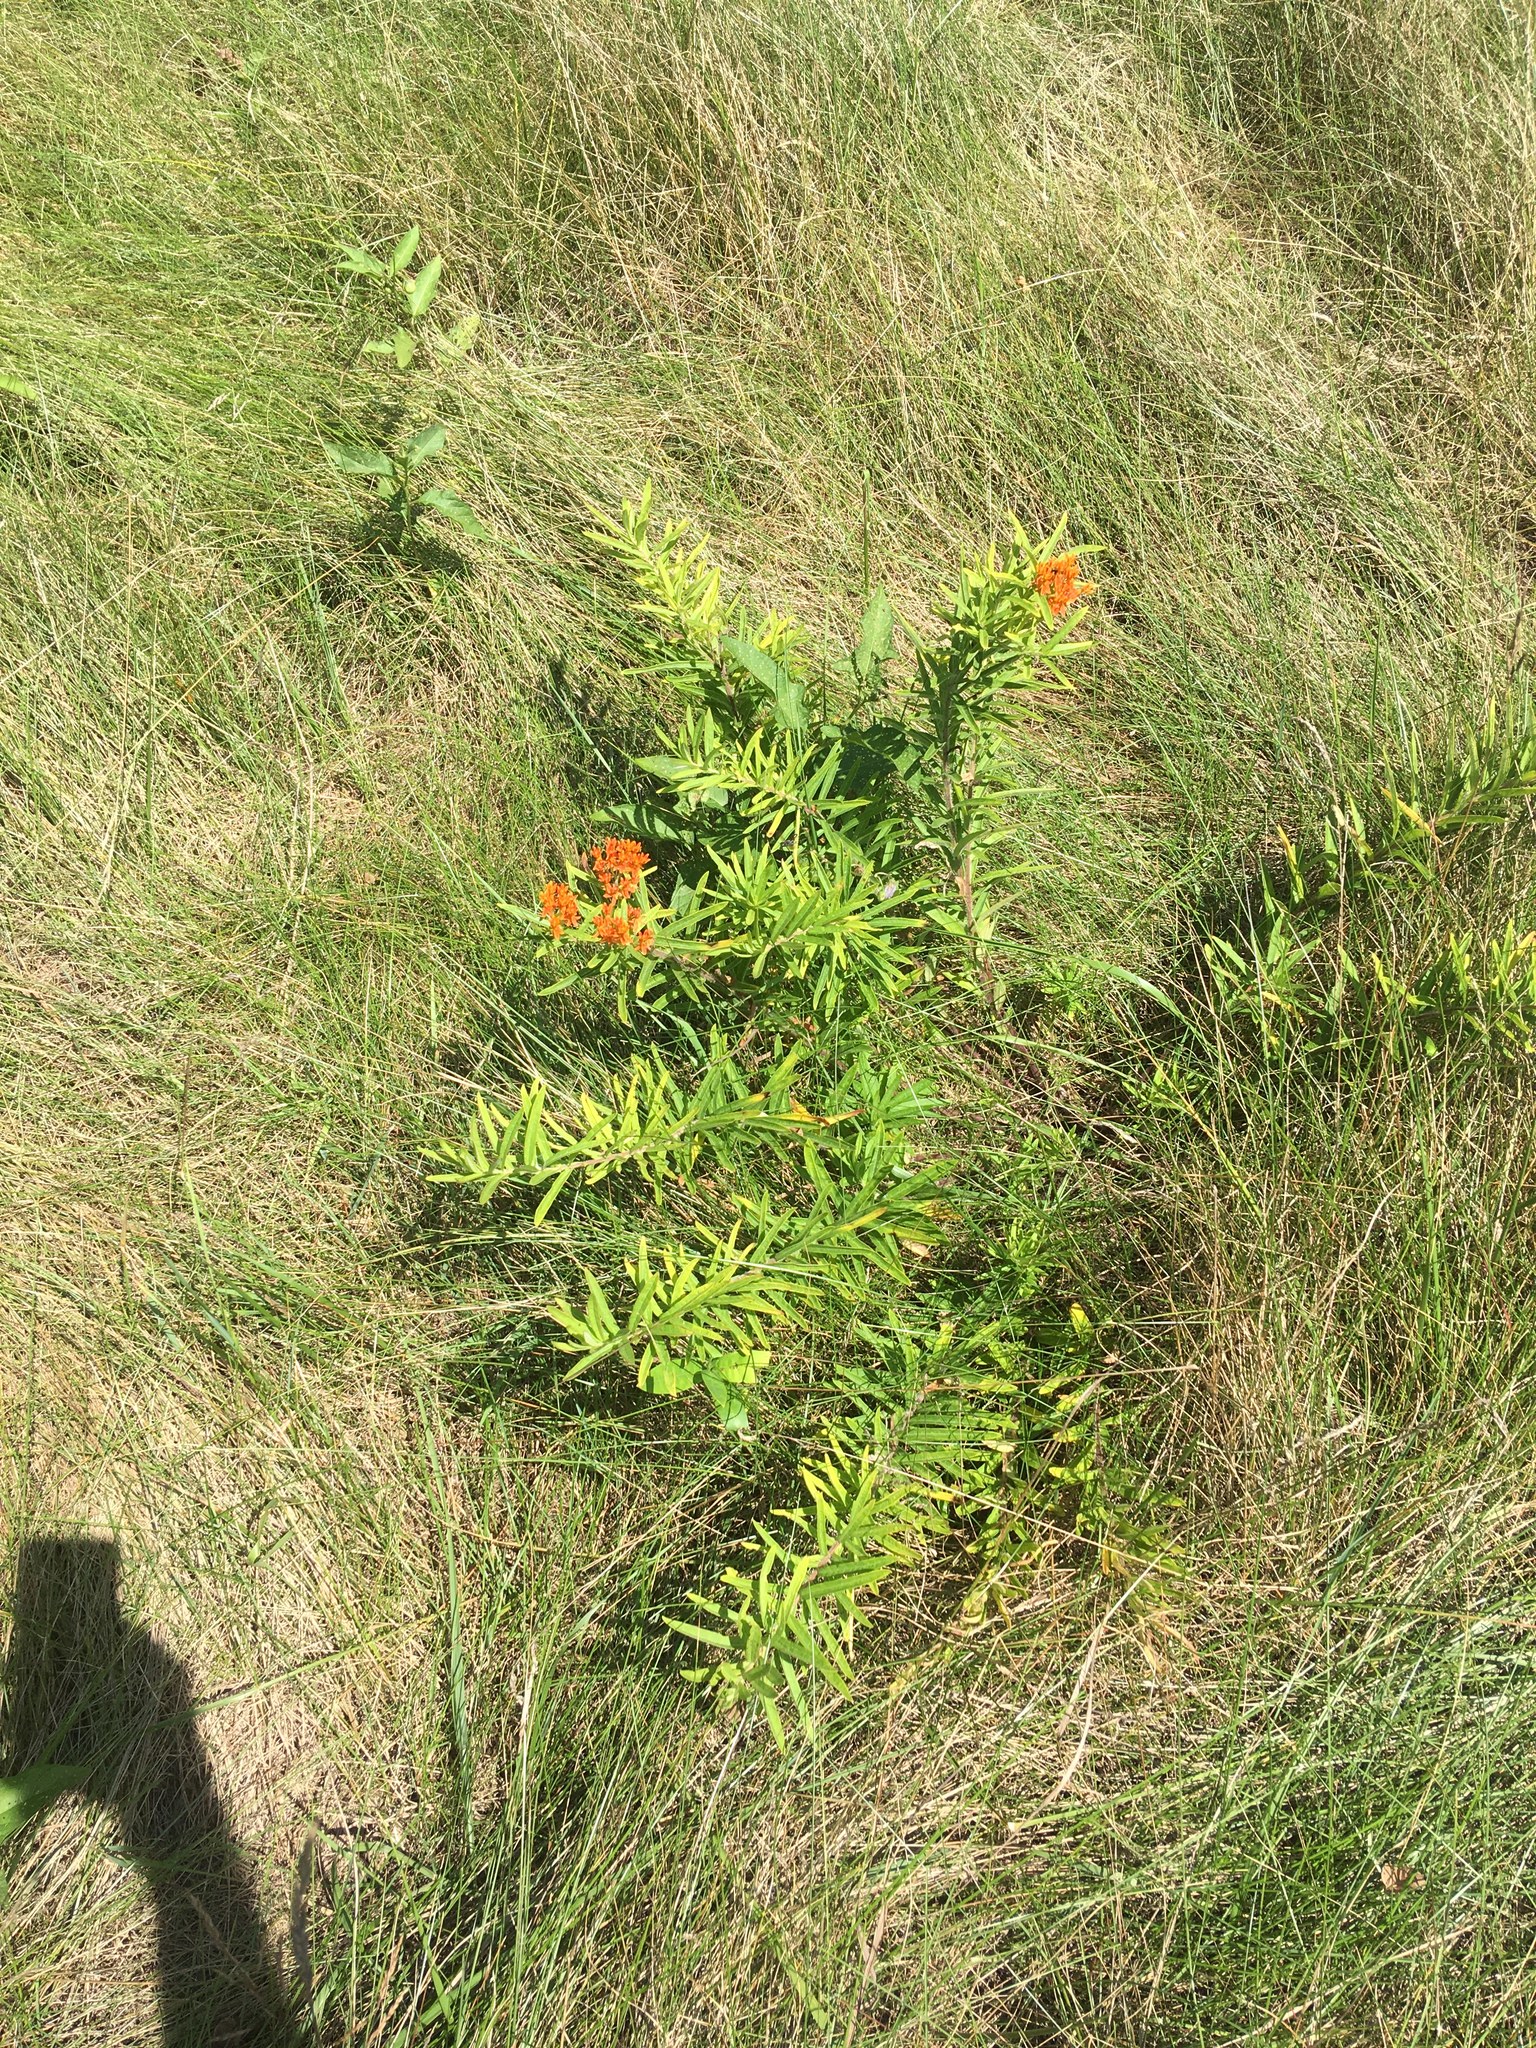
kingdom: Plantae
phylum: Tracheophyta
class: Magnoliopsida
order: Gentianales
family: Apocynaceae
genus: Asclepias
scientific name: Asclepias tuberosa
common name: Butterfly milkweed
